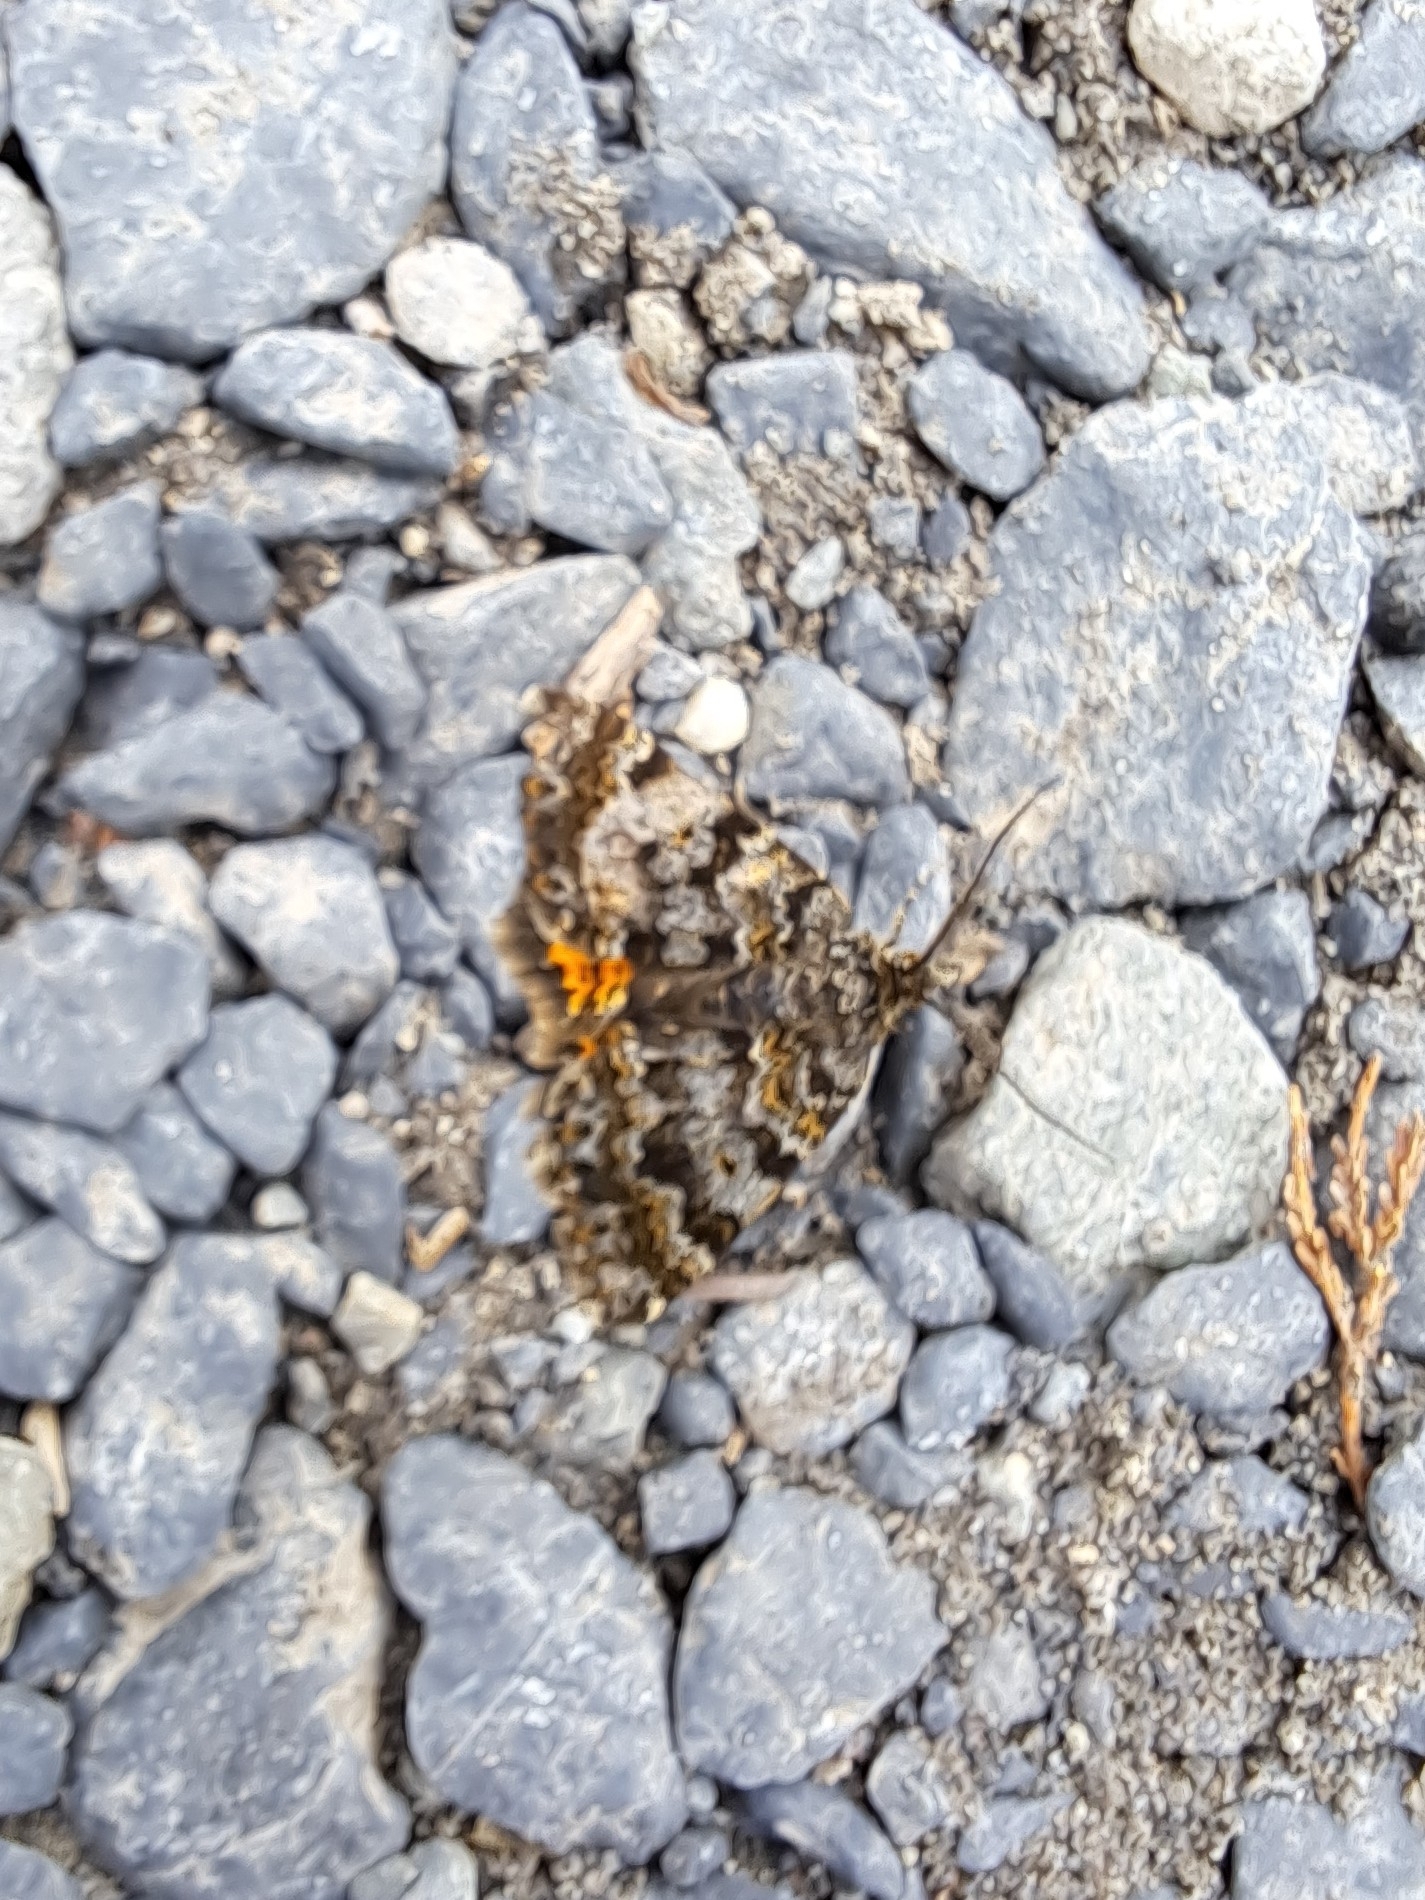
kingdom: Animalia
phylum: Arthropoda
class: Insecta
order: Lepidoptera
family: Geometridae
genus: Paranotoreas
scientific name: Paranotoreas brephosata
